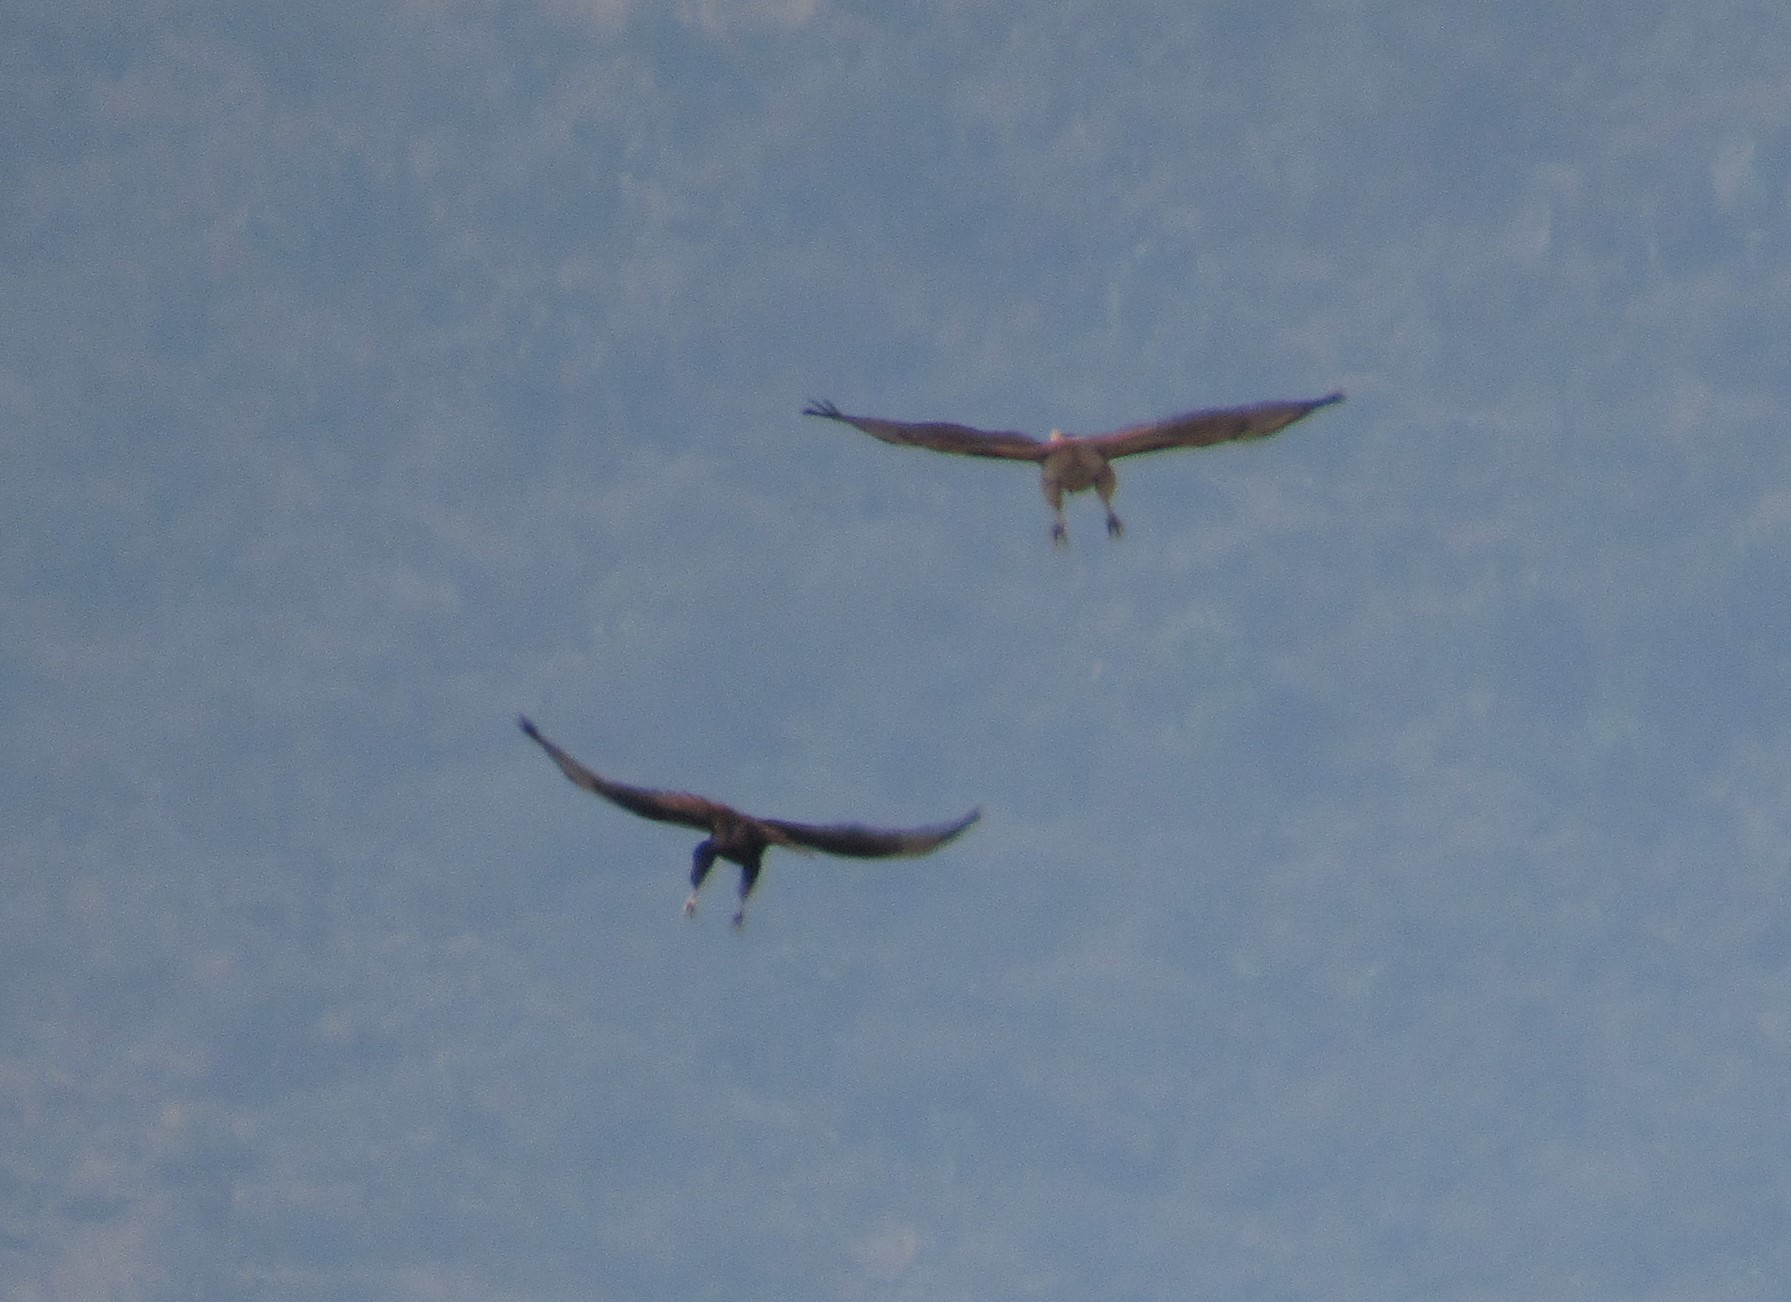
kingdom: Animalia
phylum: Chordata
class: Aves
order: Accipitriformes
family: Accipitridae
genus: Buteo
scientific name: Buteo jamaicensis
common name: Red-tailed hawk
